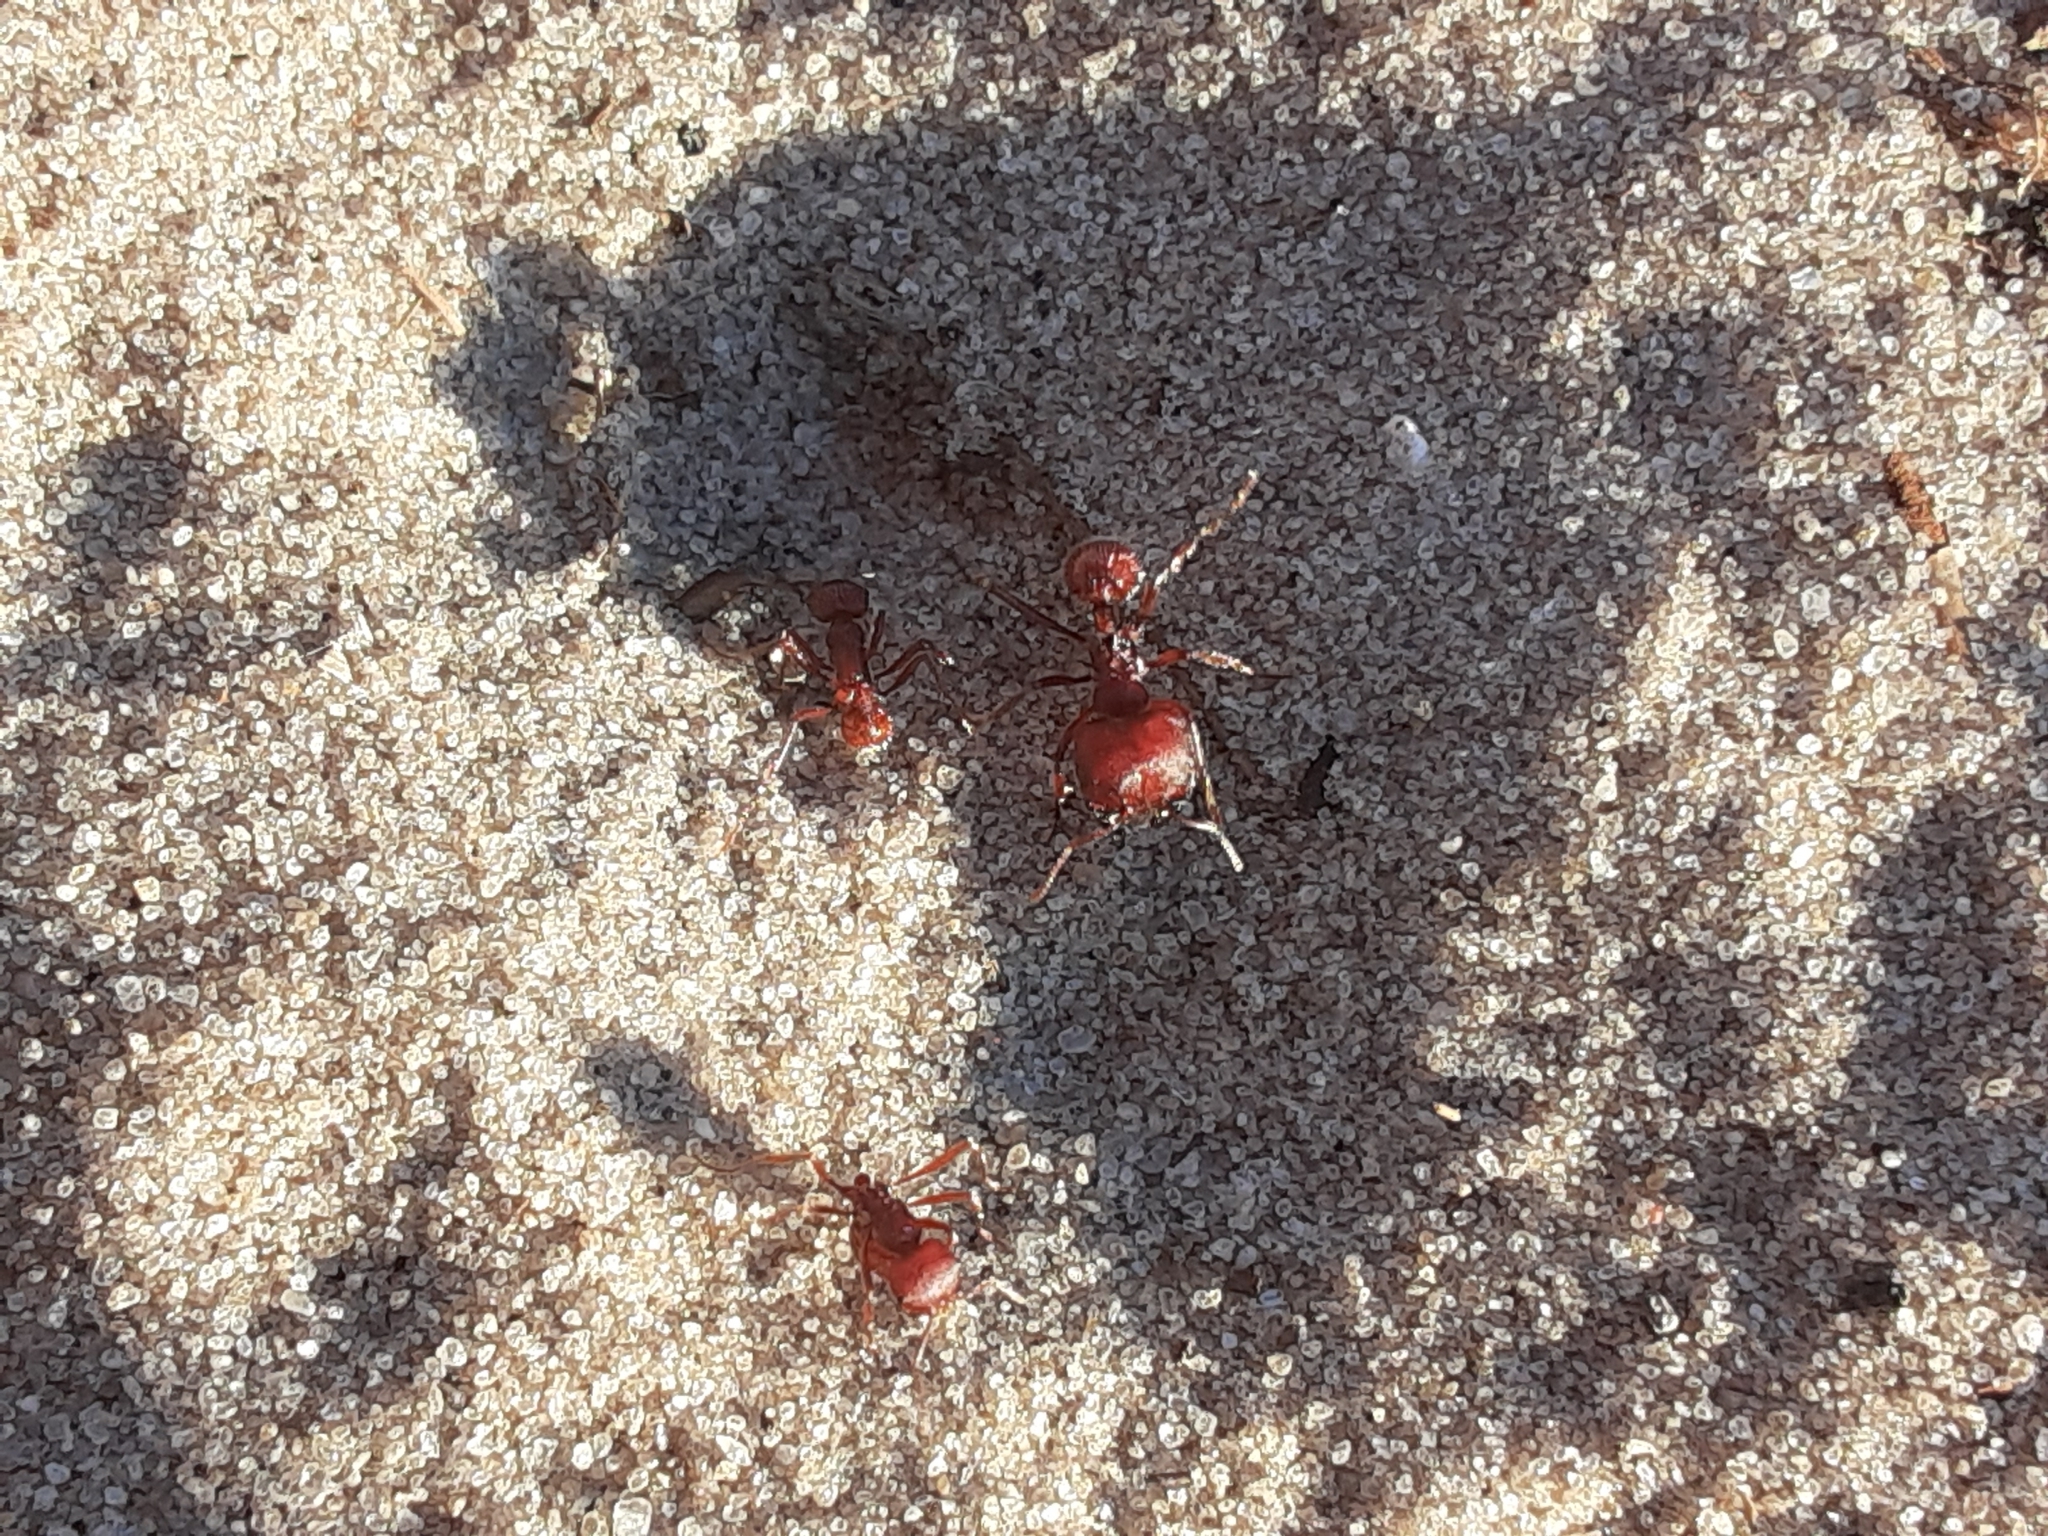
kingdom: Animalia
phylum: Arthropoda
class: Insecta
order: Hymenoptera
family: Formicidae
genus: Pogonomyrmex
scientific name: Pogonomyrmex badius
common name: Florida harvester ant
